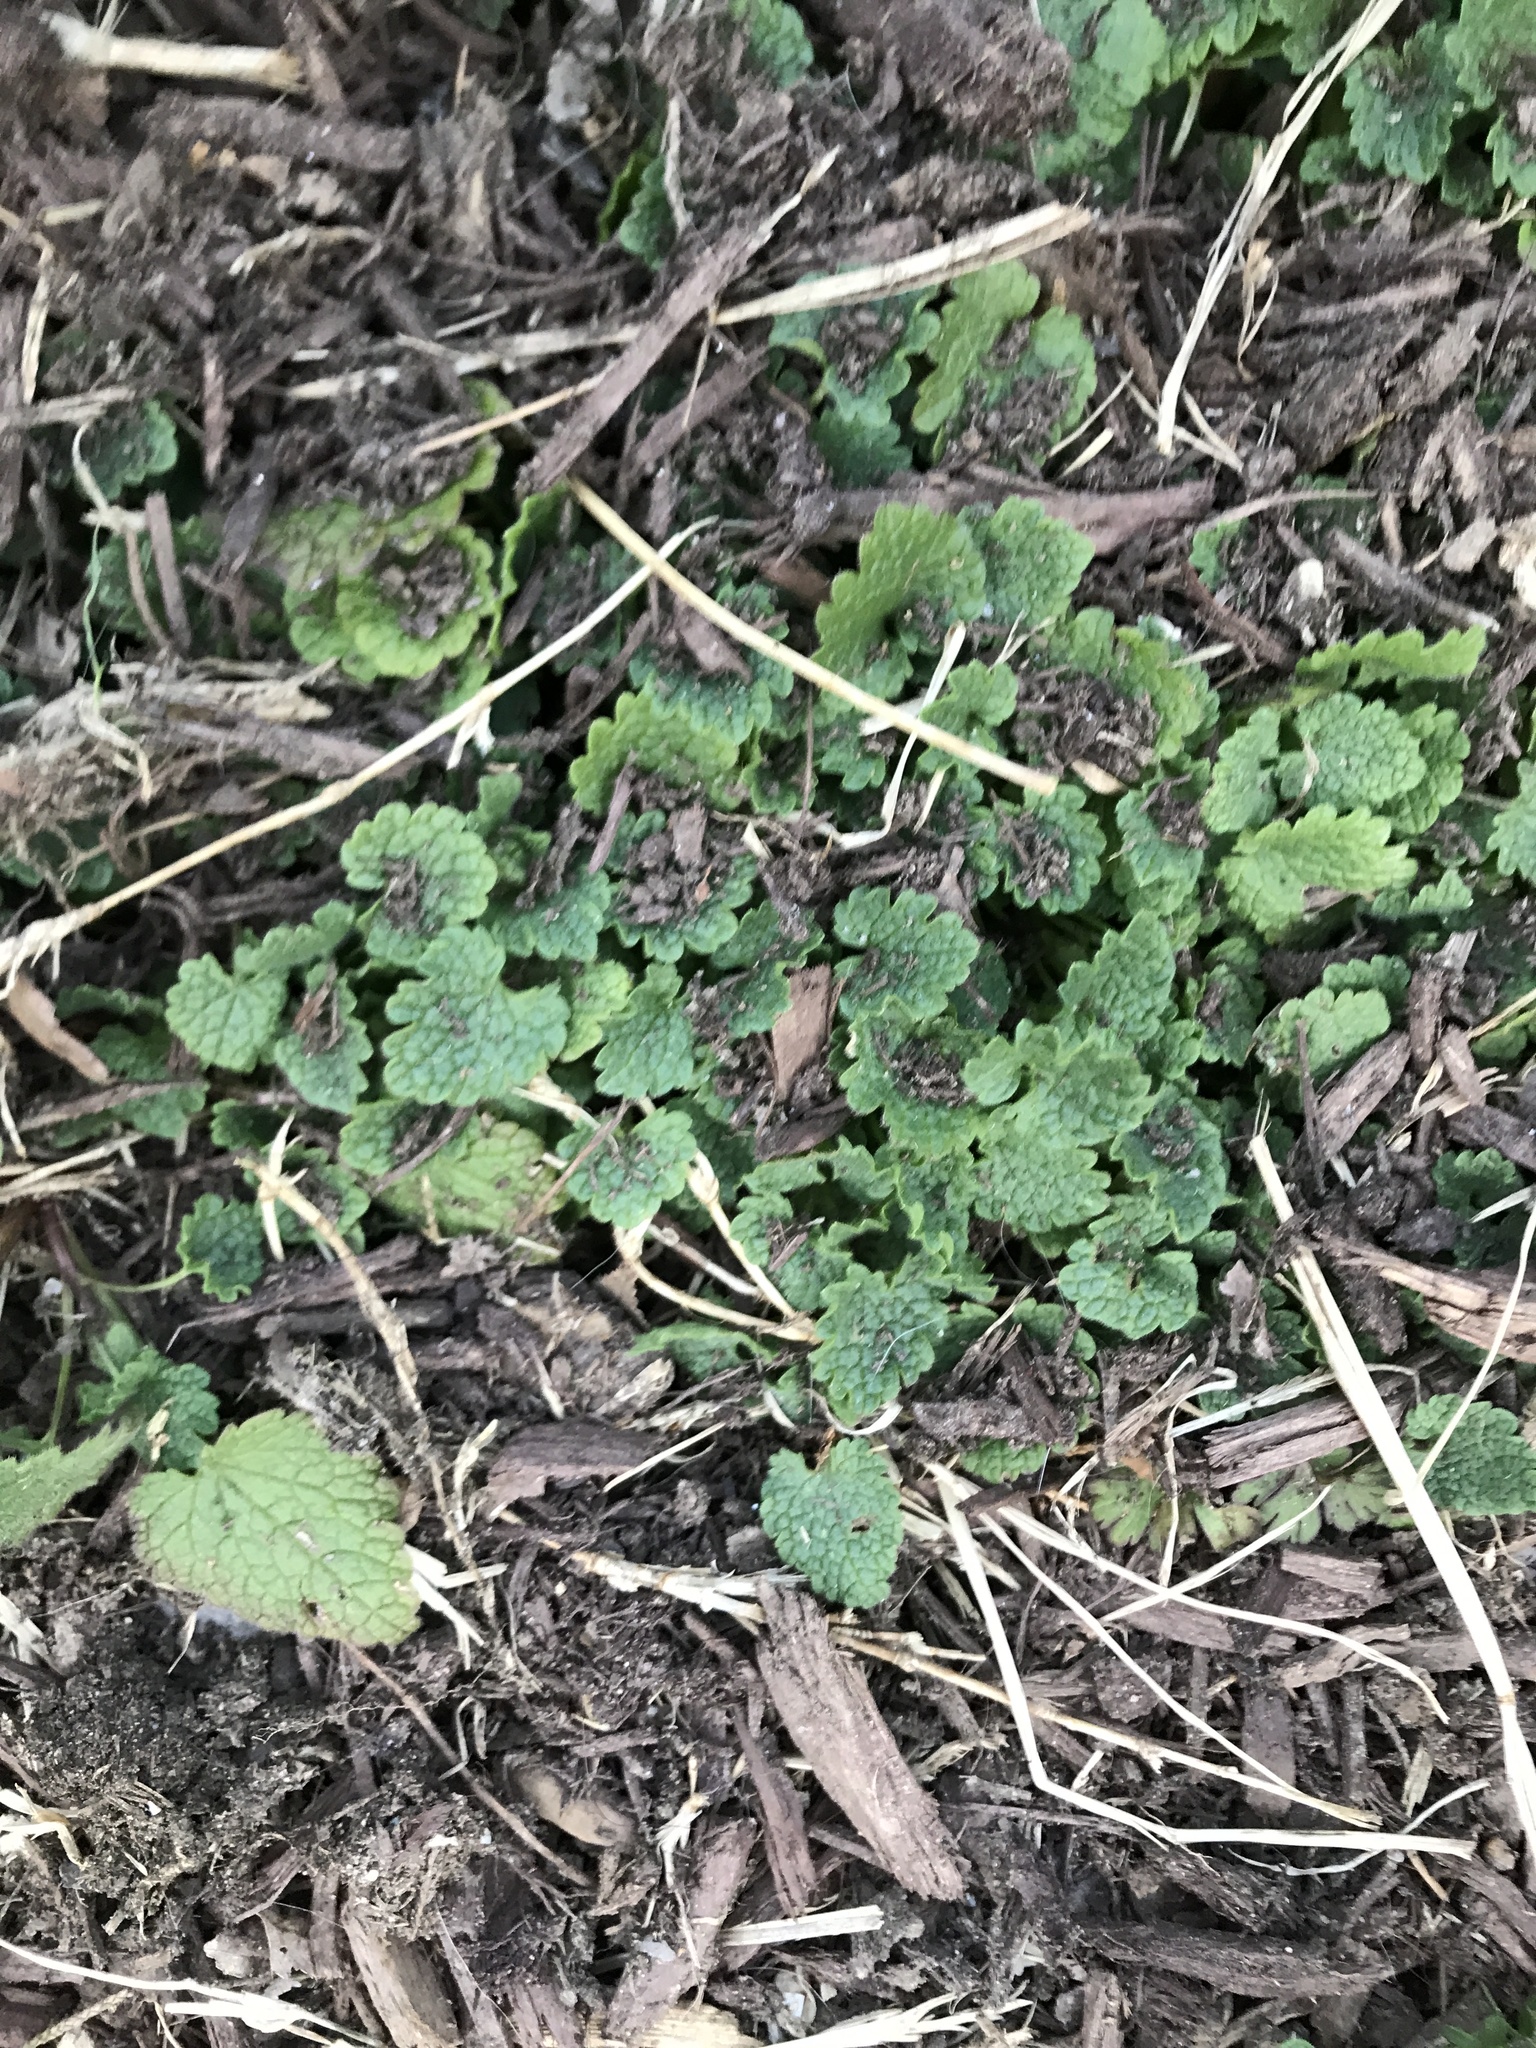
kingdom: Plantae
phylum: Tracheophyta
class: Magnoliopsida
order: Lamiales
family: Lamiaceae
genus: Lamium
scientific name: Lamium purpureum
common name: Red dead-nettle
